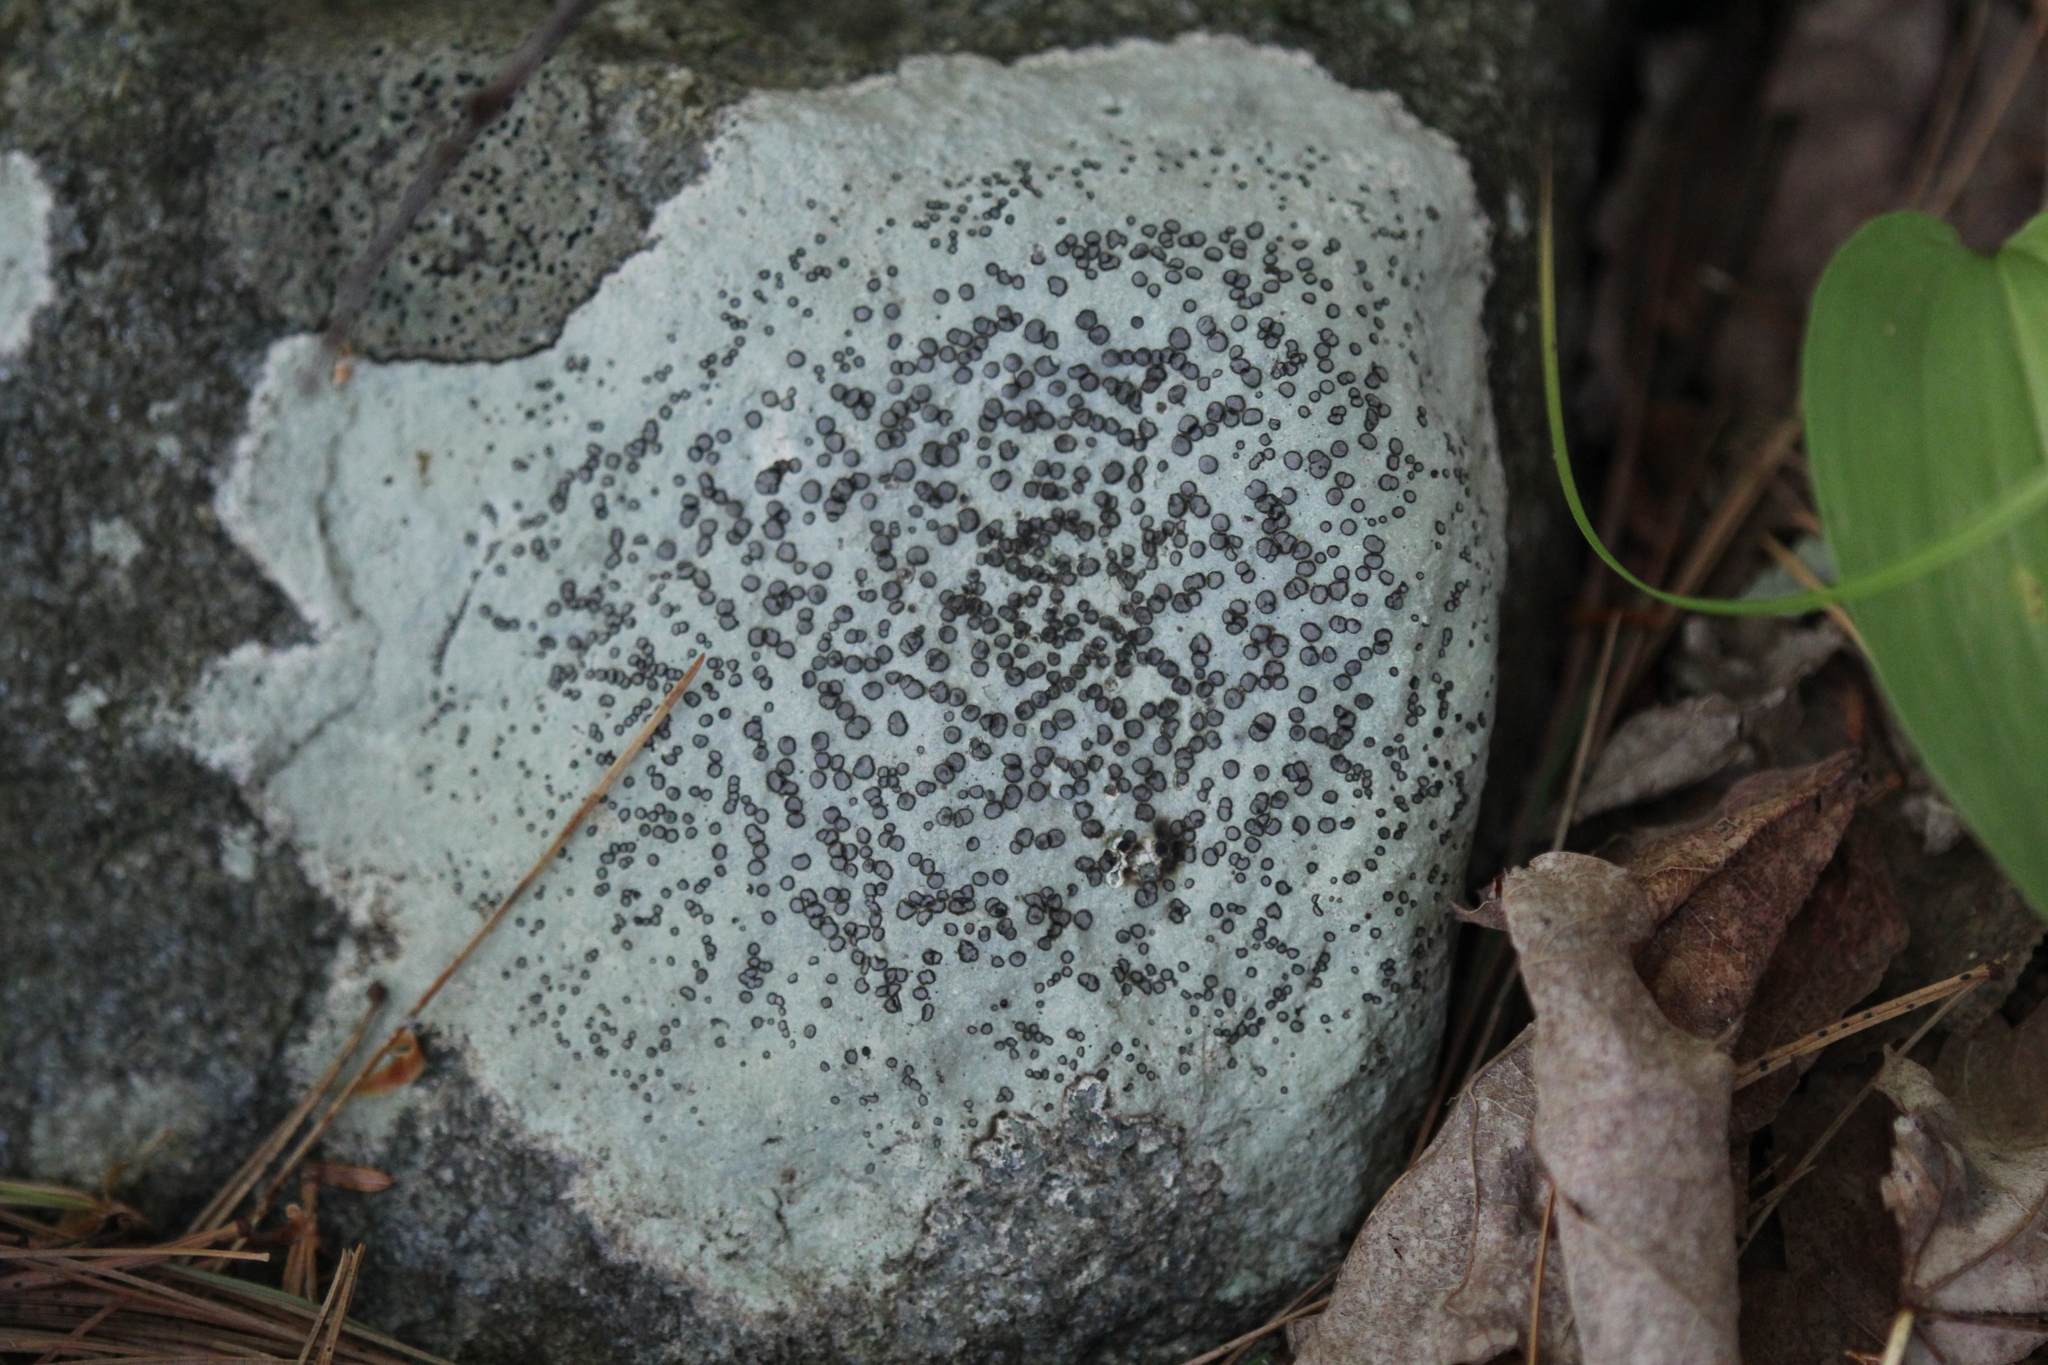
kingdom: Fungi
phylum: Ascomycota
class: Lecanoromycetes
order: Lecideales
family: Lecideaceae
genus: Porpidia
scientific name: Porpidia albocaerulescens
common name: Smokey-eyed boulder lichen
